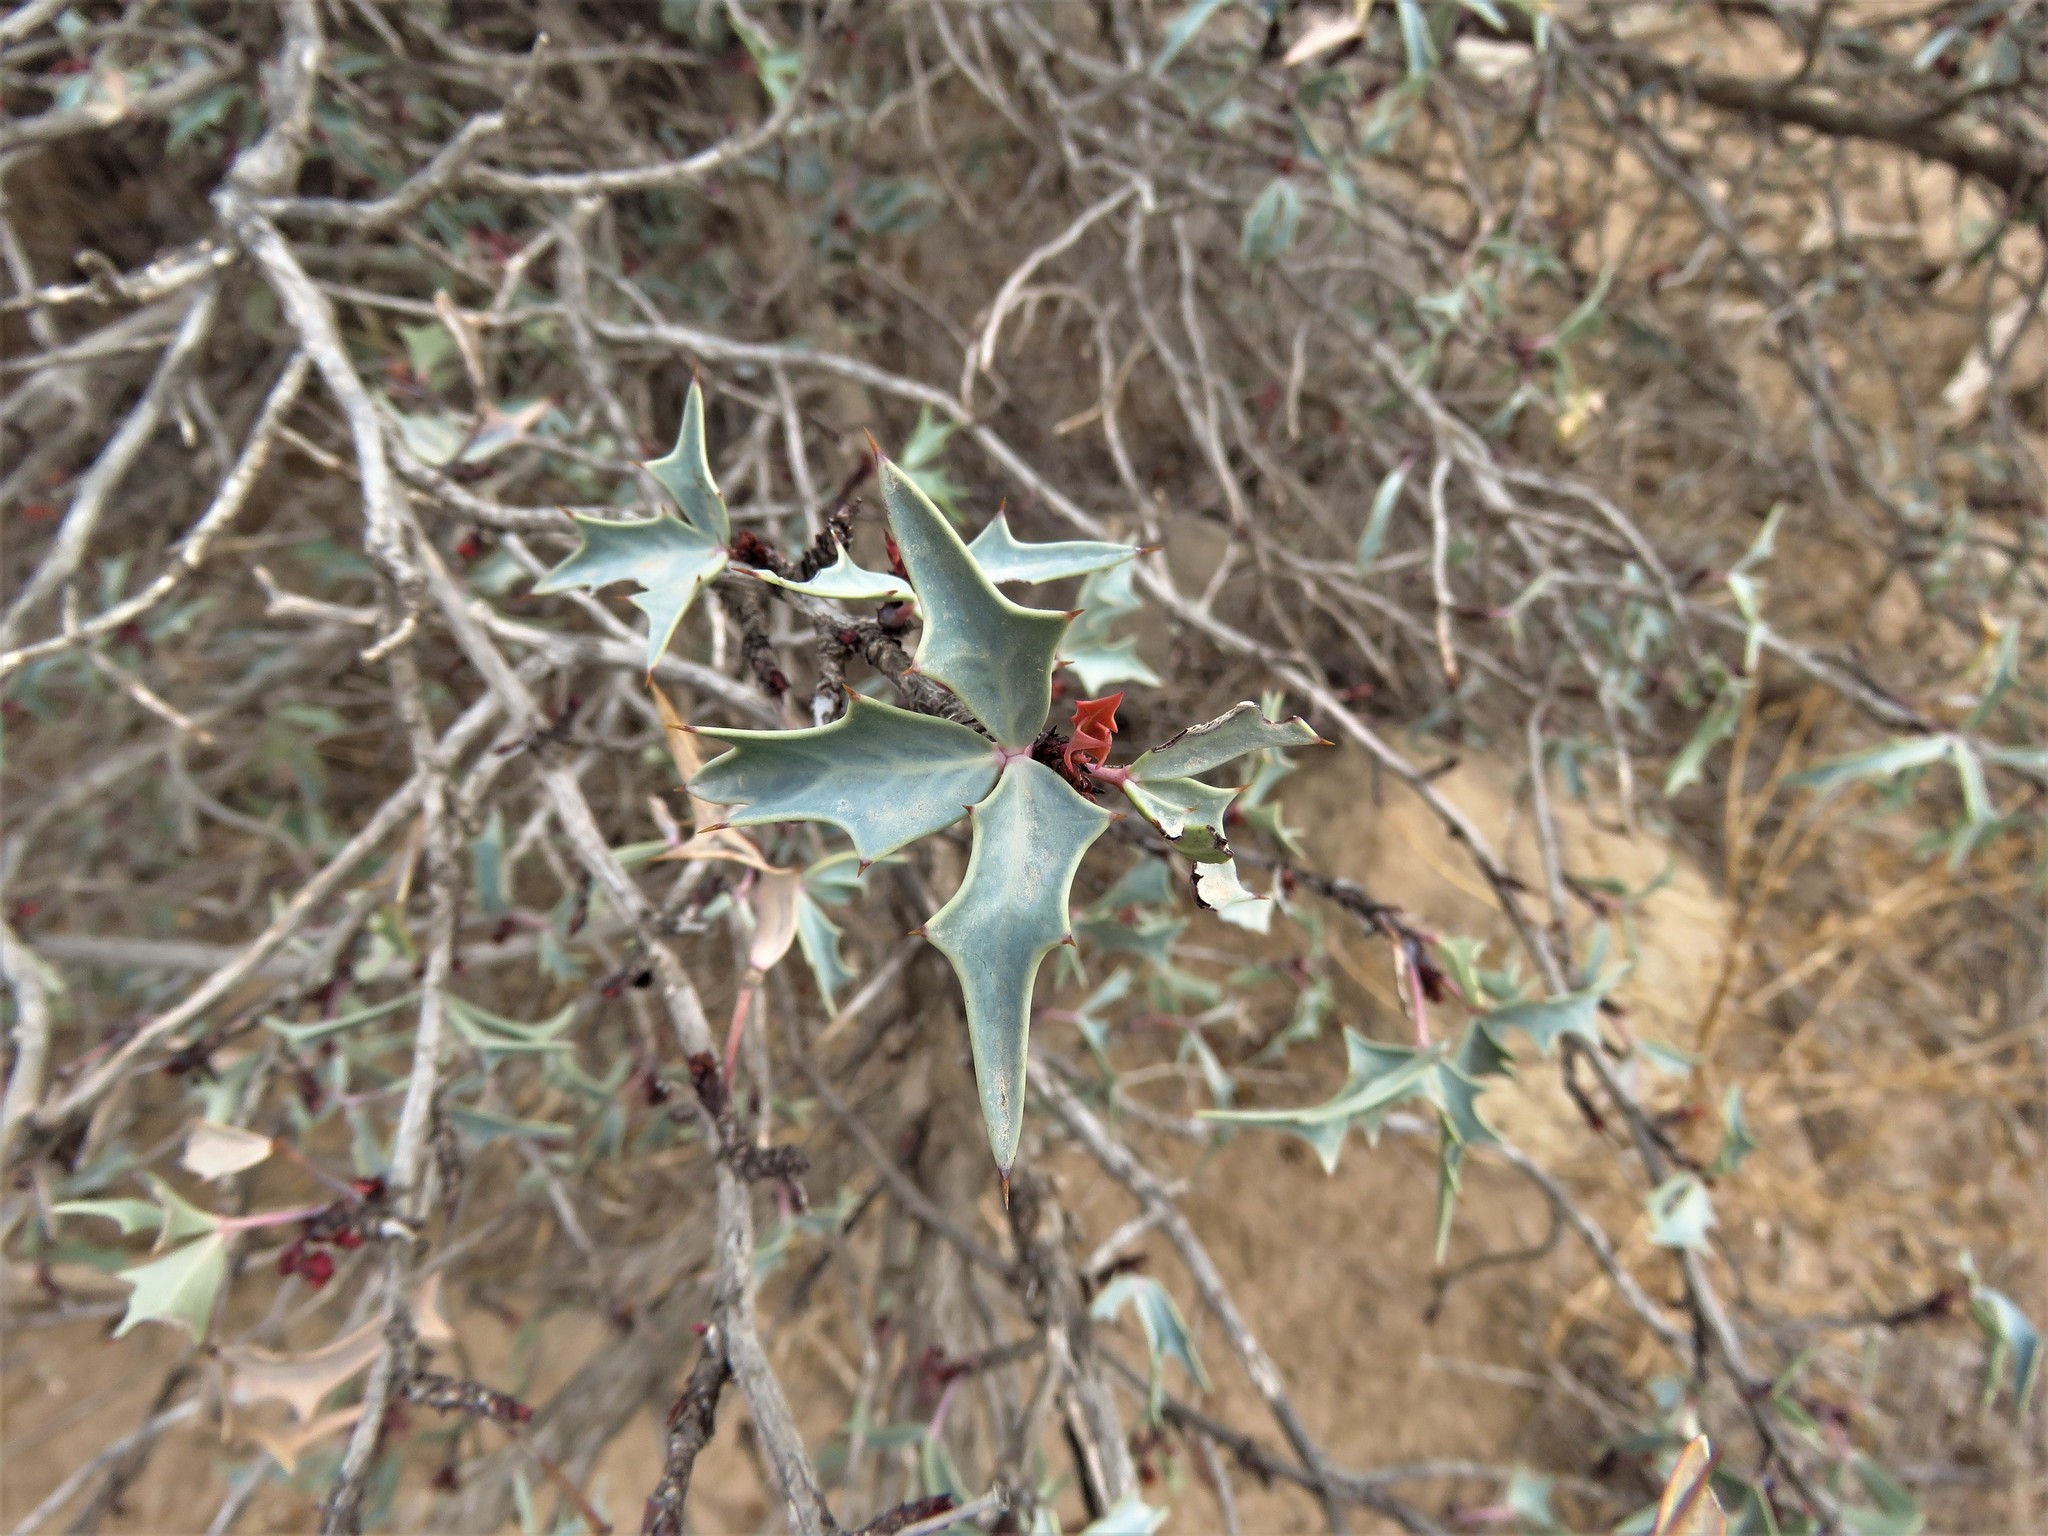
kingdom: Plantae
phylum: Tracheophyta
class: Magnoliopsida
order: Ranunculales
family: Berberidaceae
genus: Alloberberis
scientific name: Alloberberis trifoliolata
